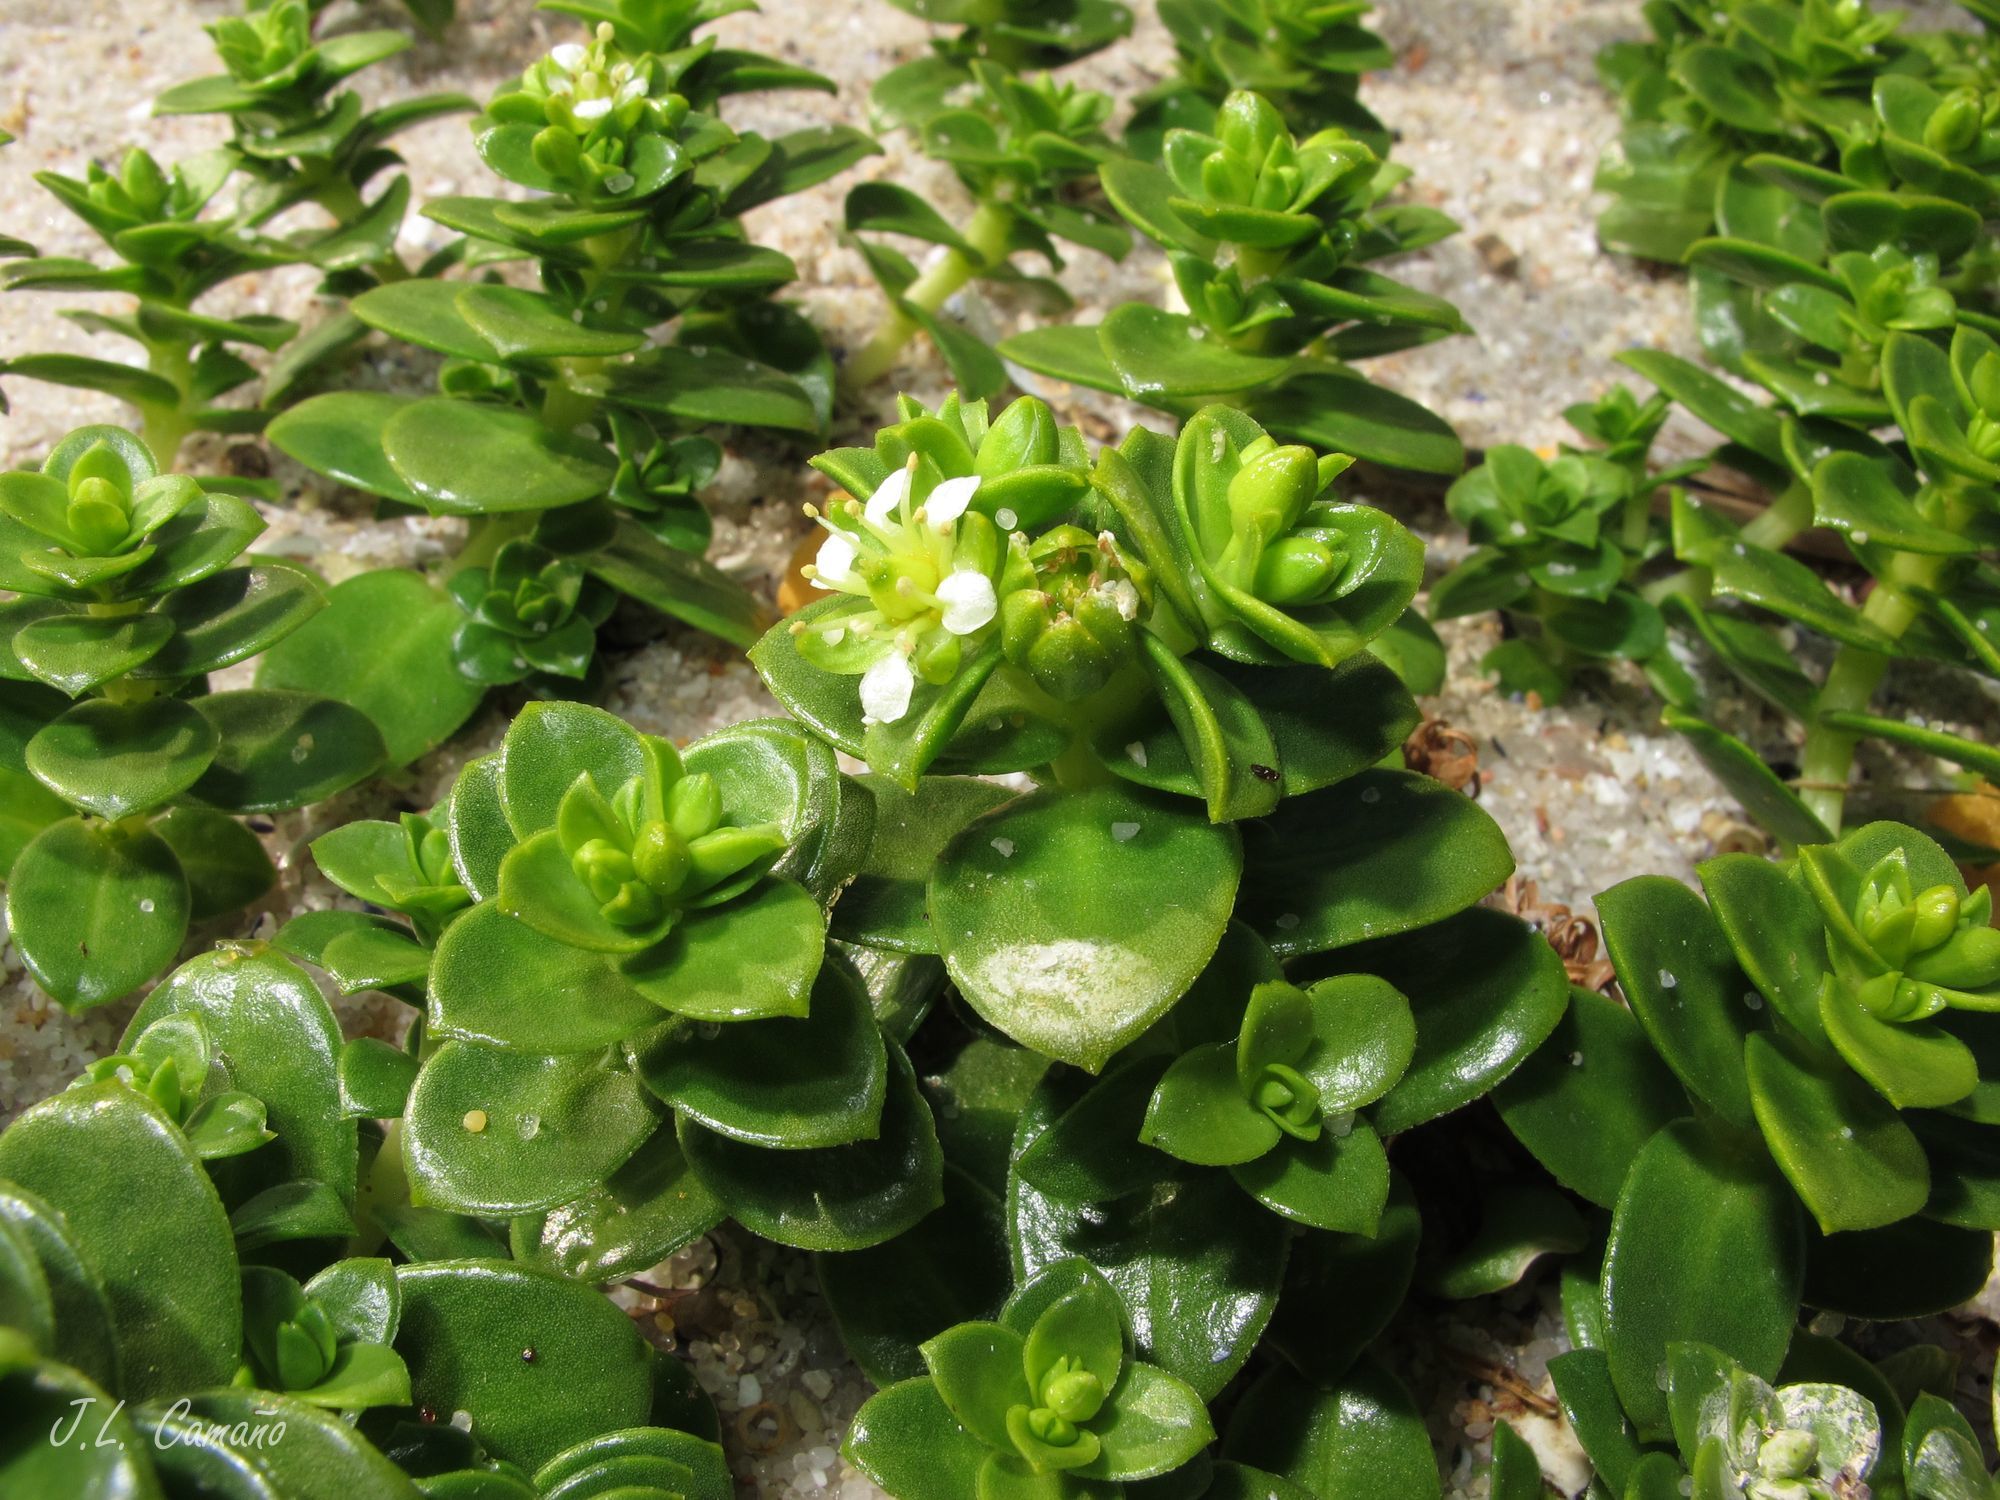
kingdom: Plantae
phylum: Tracheophyta
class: Magnoliopsida
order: Caryophyllales
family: Caryophyllaceae
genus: Honckenya
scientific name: Honckenya peploides
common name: Sea sandwort
